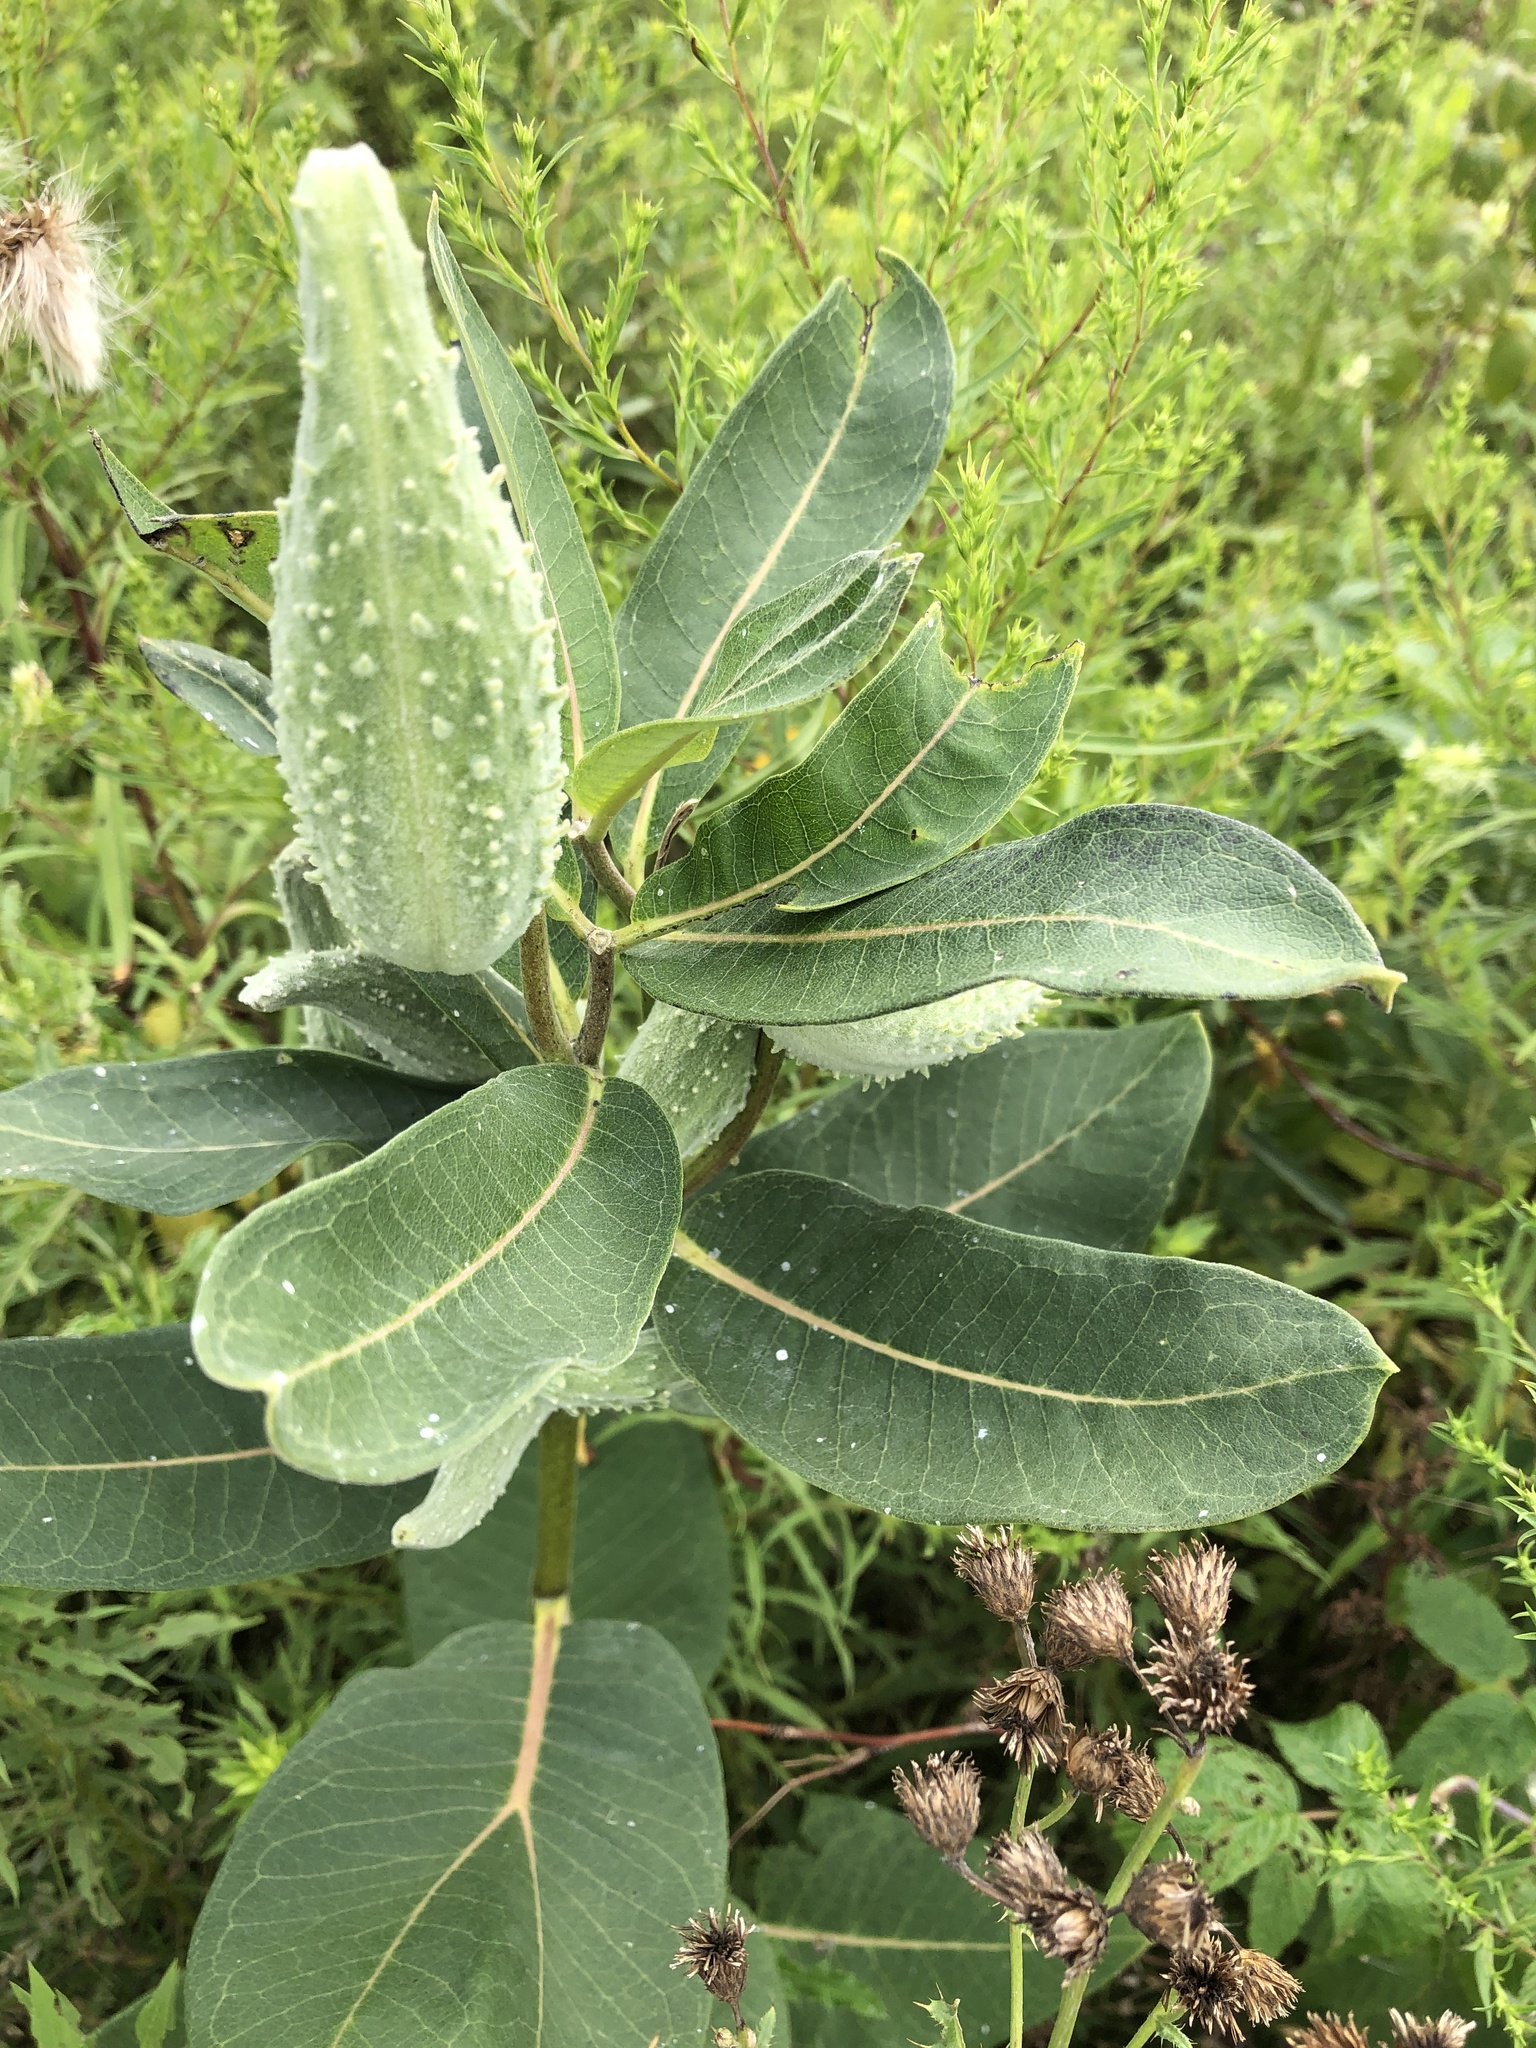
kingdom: Plantae
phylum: Tracheophyta
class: Magnoliopsida
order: Gentianales
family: Apocynaceae
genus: Asclepias
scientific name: Asclepias syriaca
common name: Common milkweed
